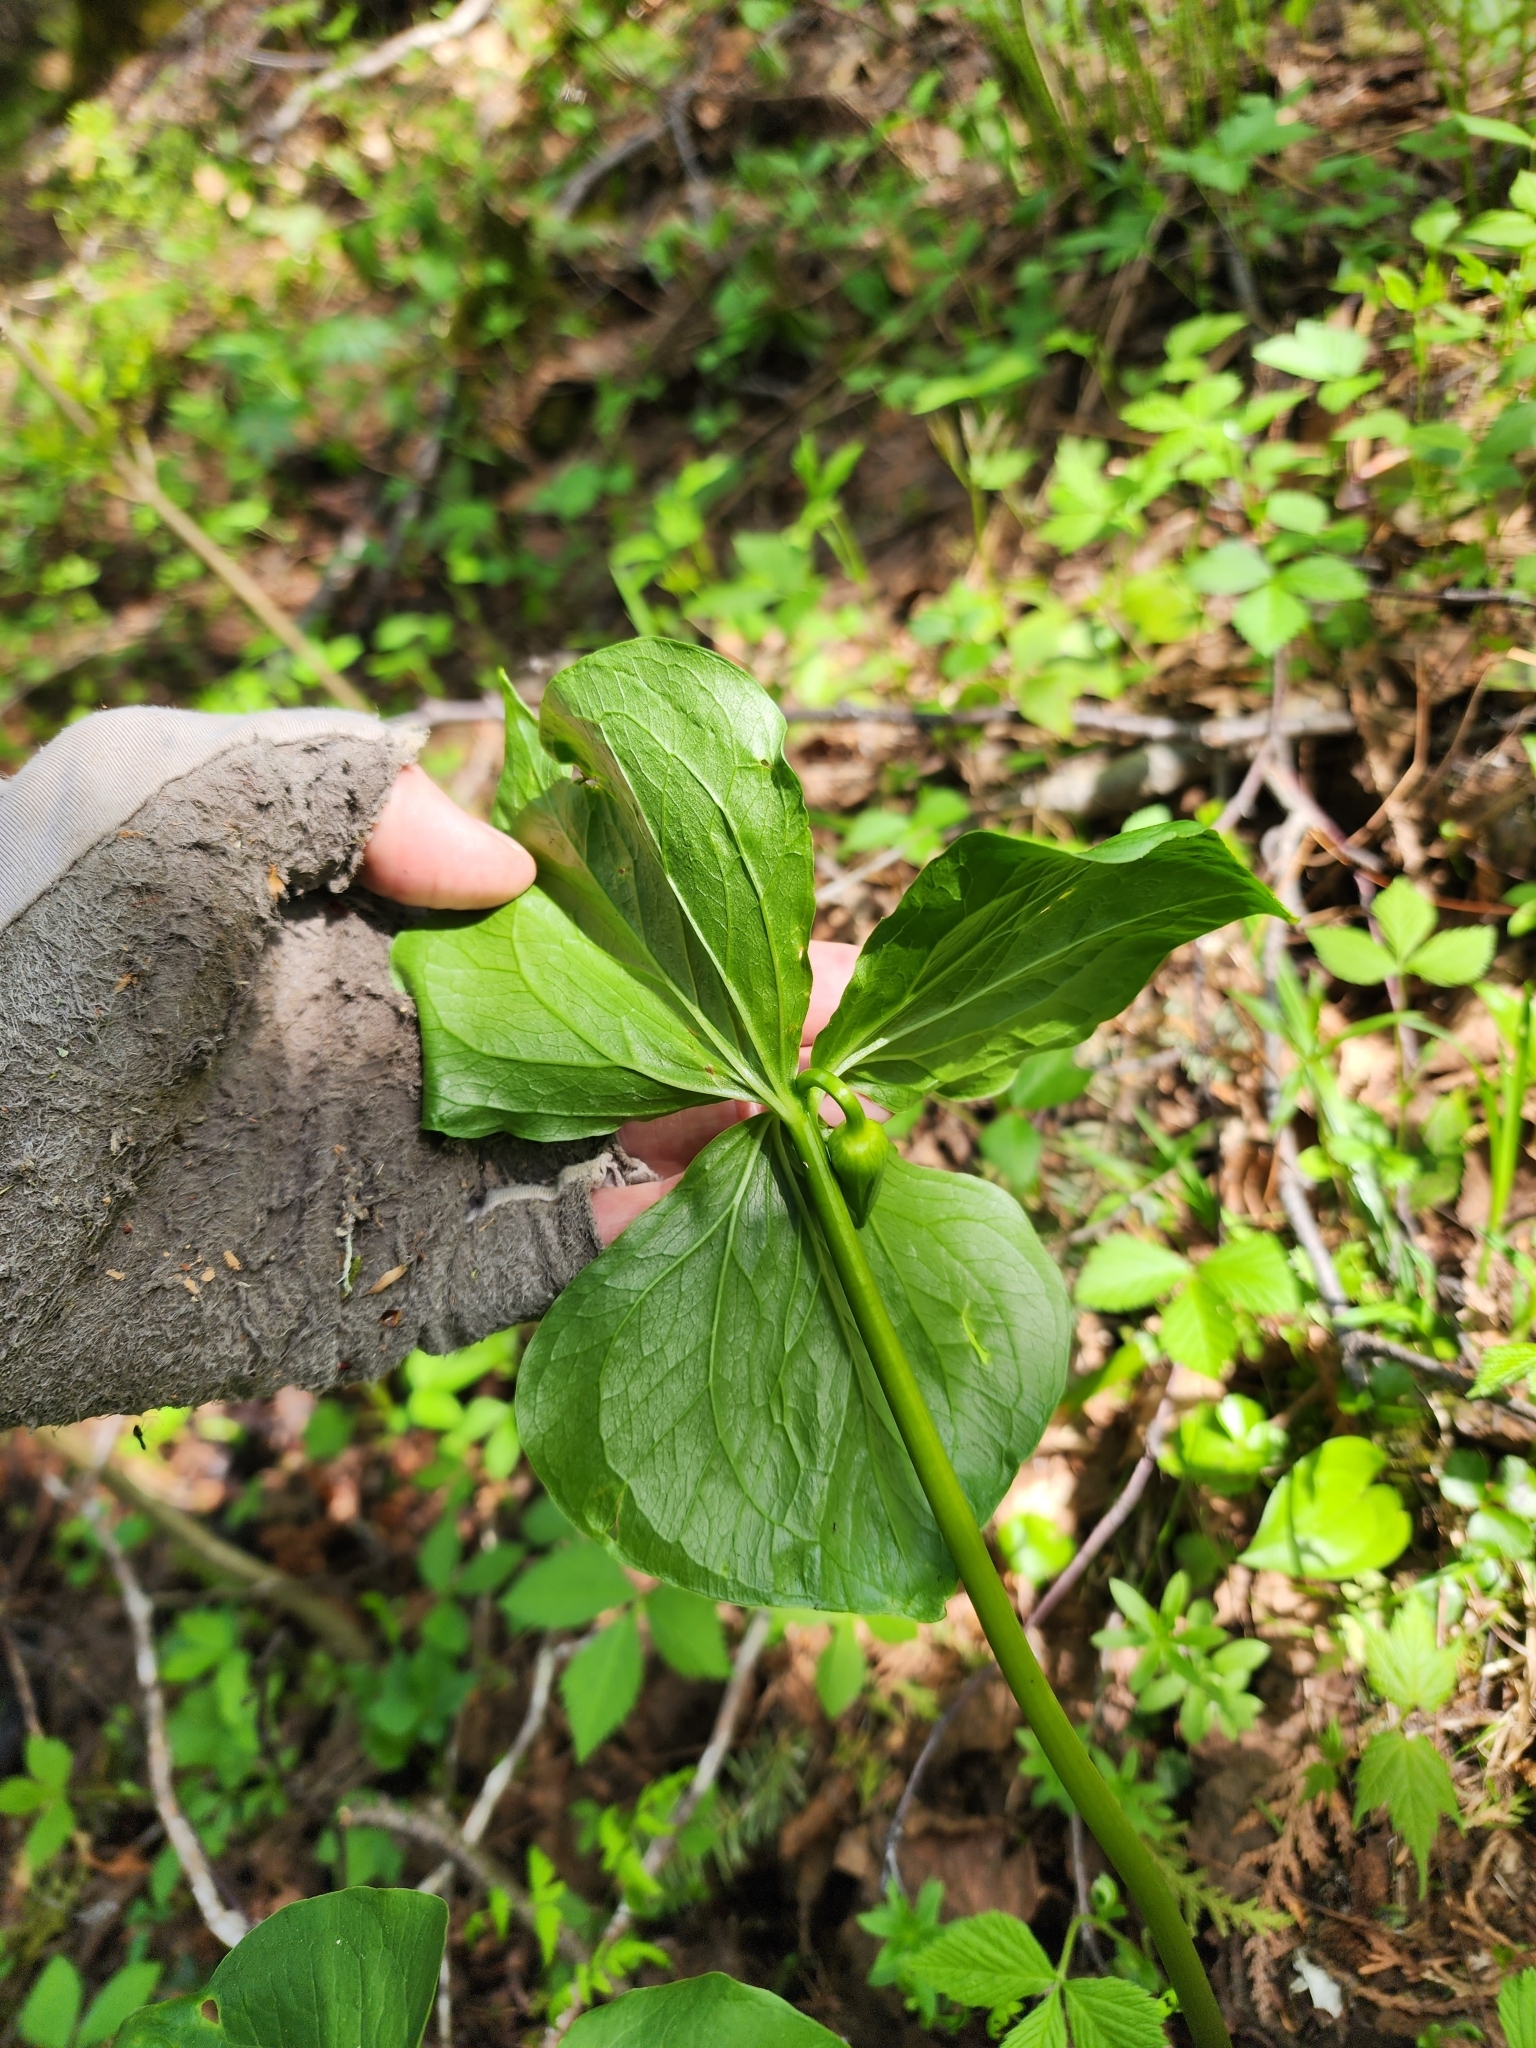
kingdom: Plantae
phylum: Tracheophyta
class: Liliopsida
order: Liliales
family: Melanthiaceae
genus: Trillium
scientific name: Trillium cernuum
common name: Nodding trillium
